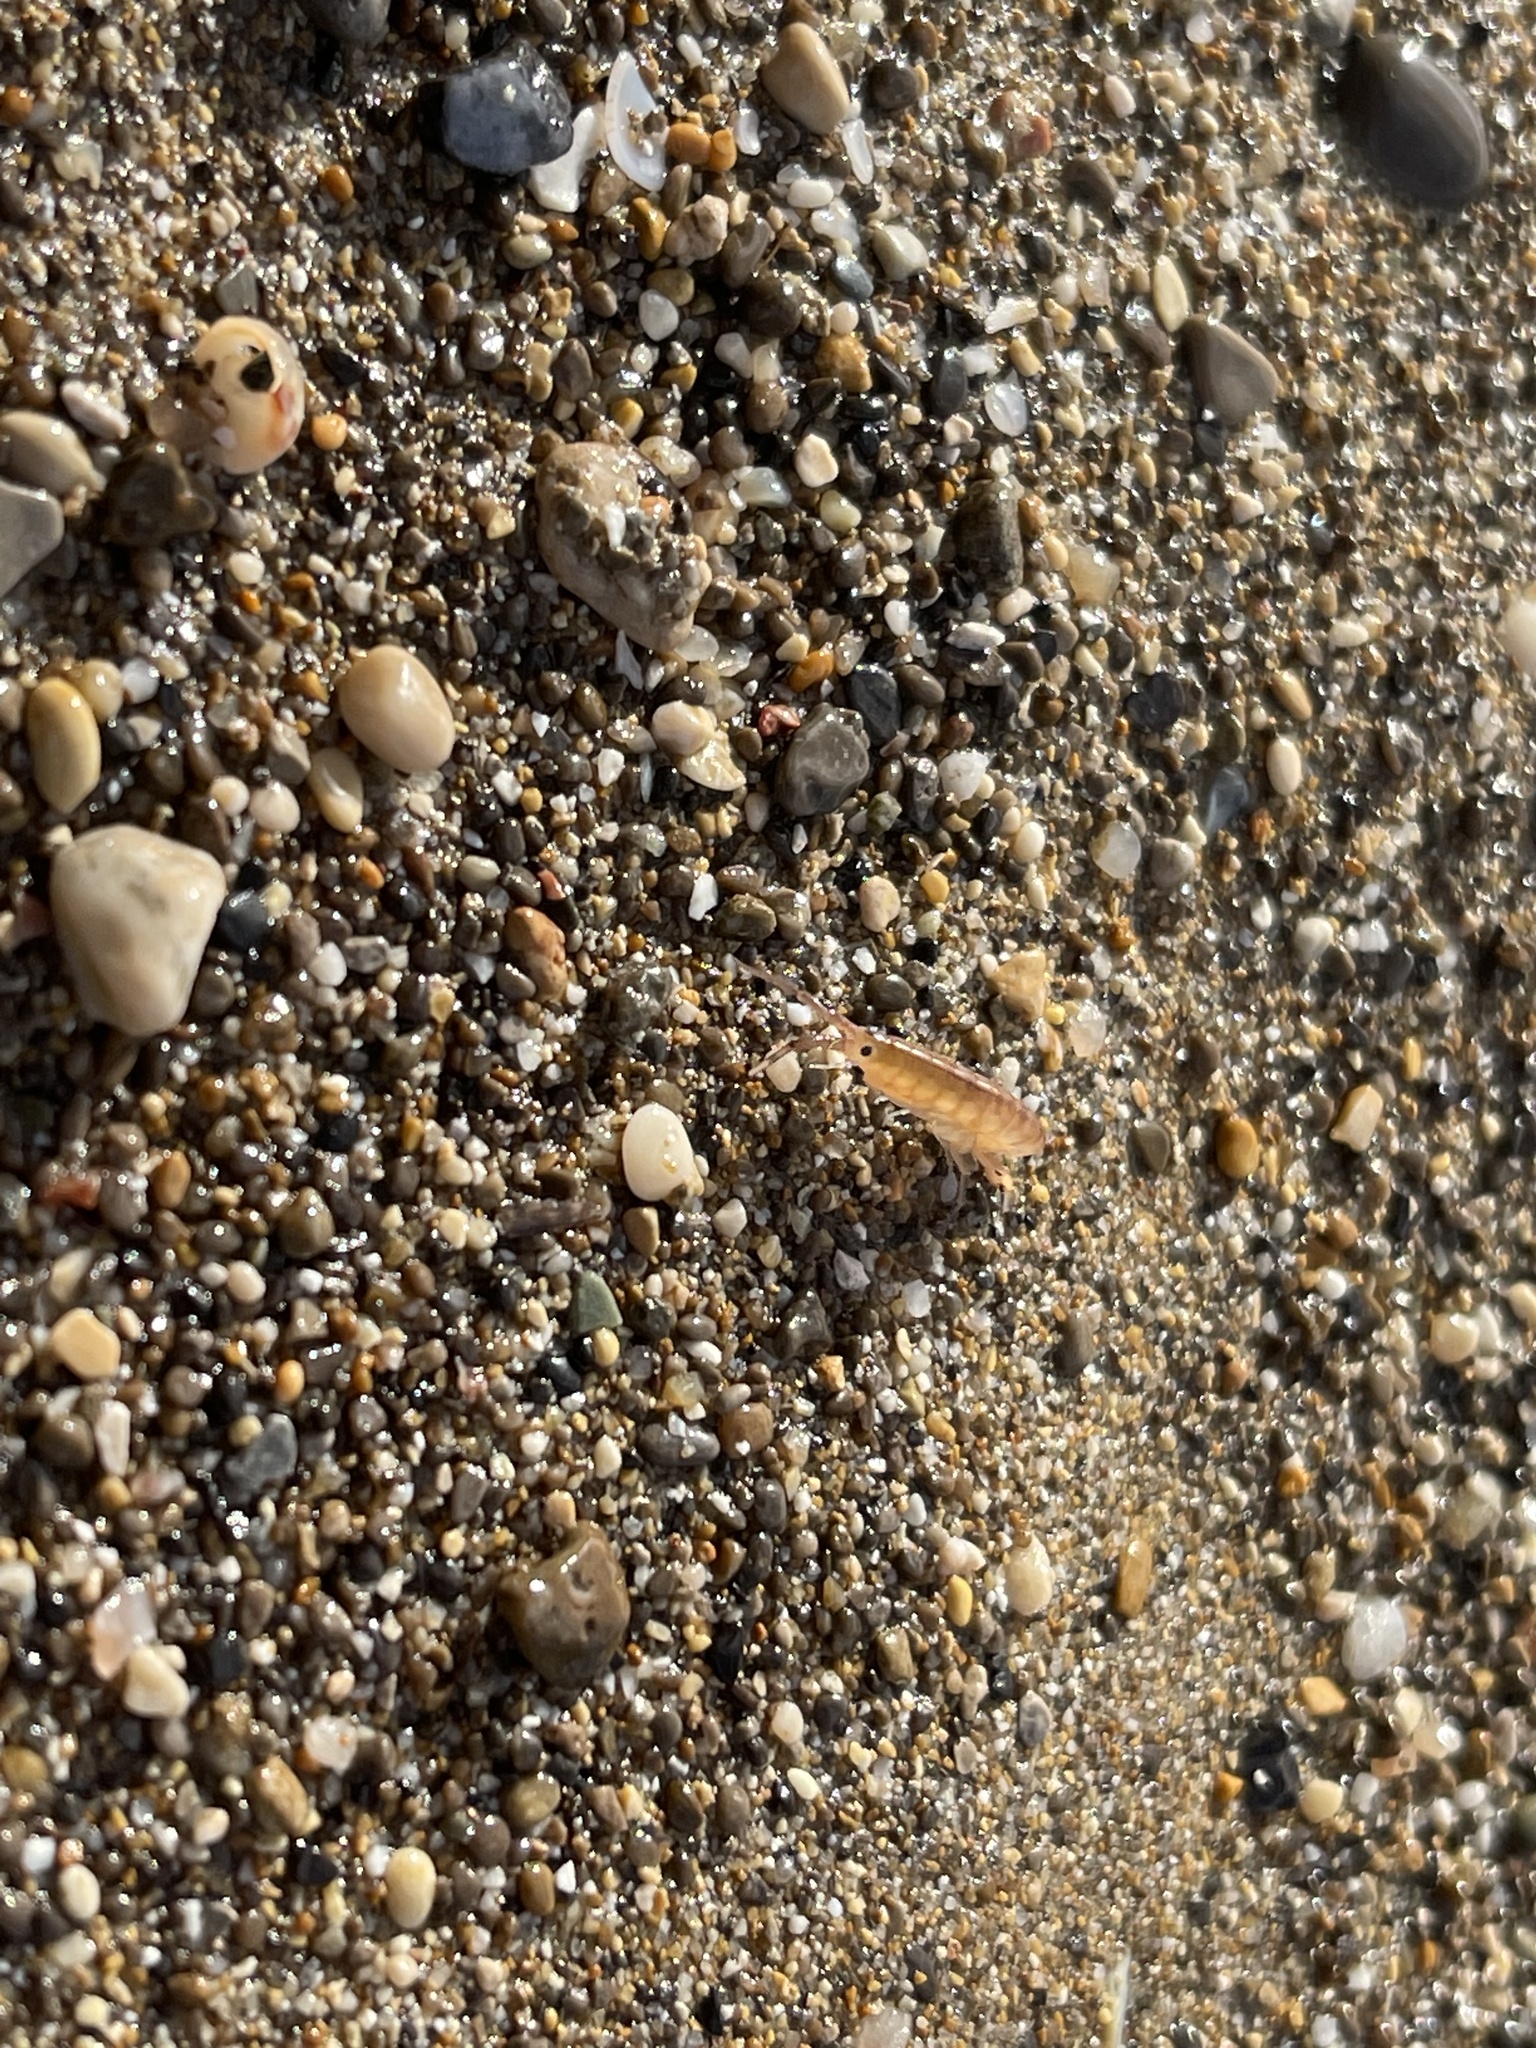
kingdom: Animalia
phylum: Arthropoda
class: Malacostraca
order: Amphipoda
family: Talitridae
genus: Talitrus
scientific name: Talitrus platycheles
